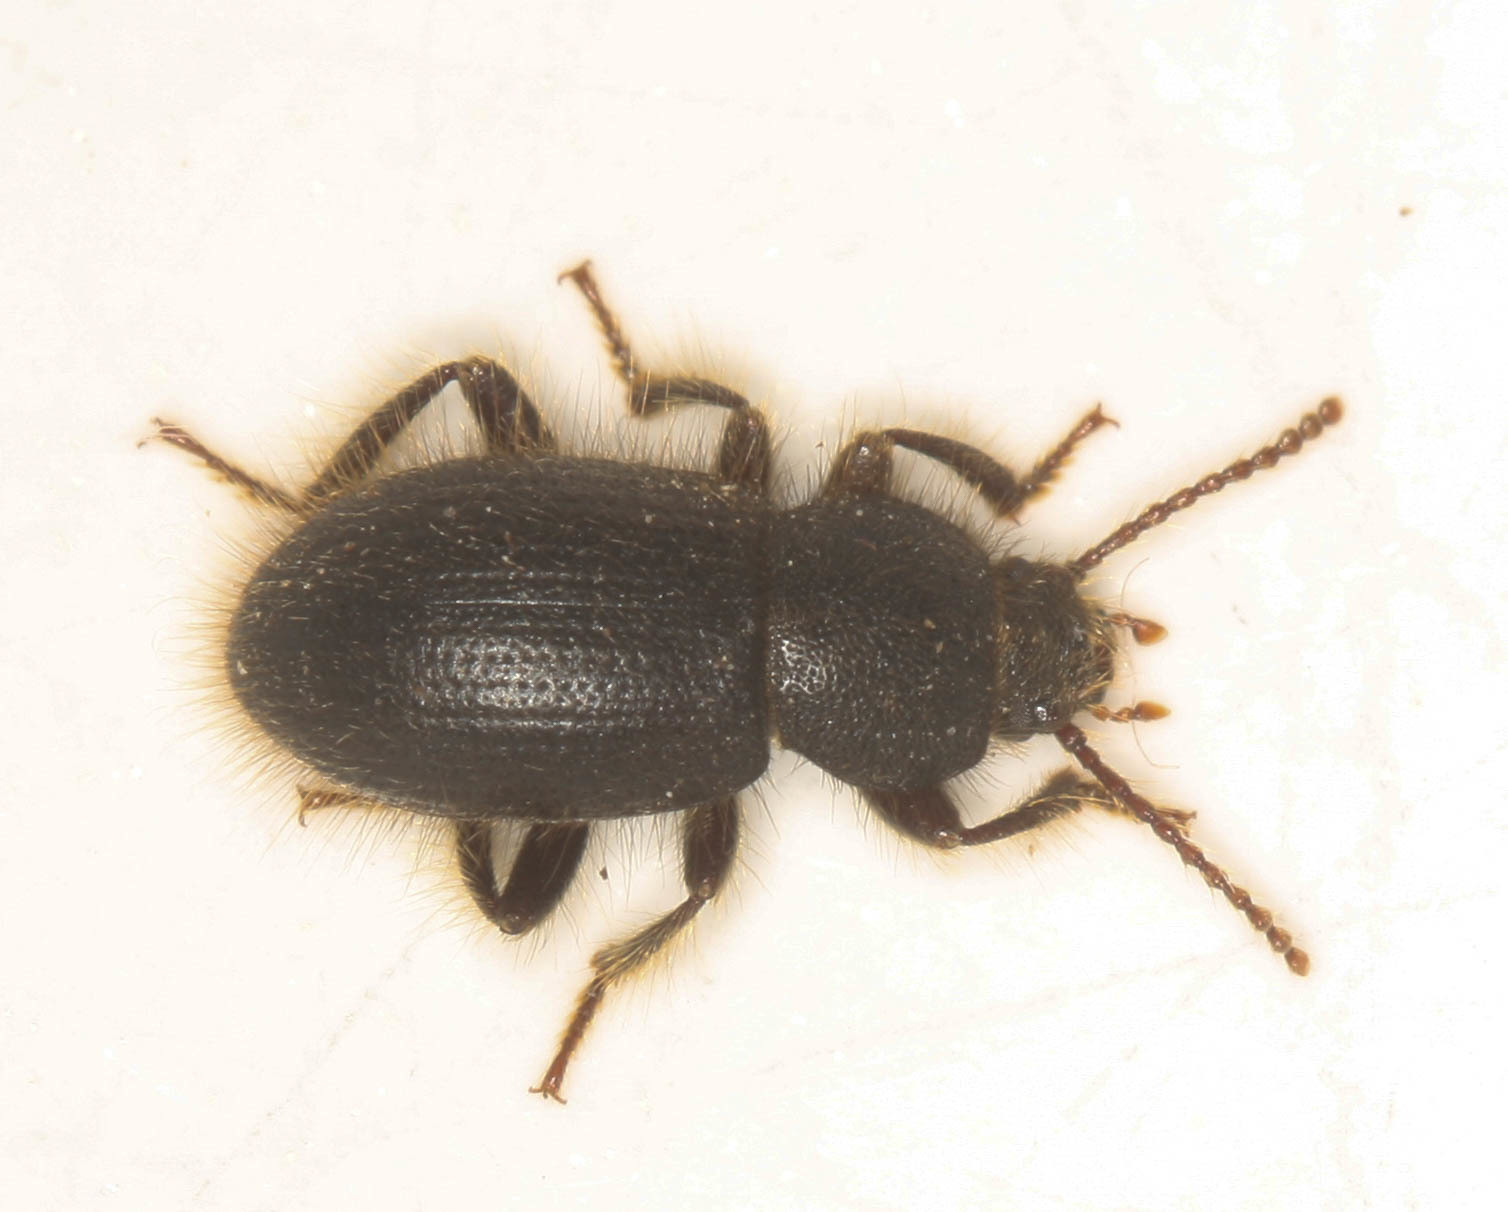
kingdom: Animalia
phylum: Arthropoda
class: Insecta
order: Coleoptera
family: Tenebrionidae
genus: Eleodes
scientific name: Eleodes littoralis
